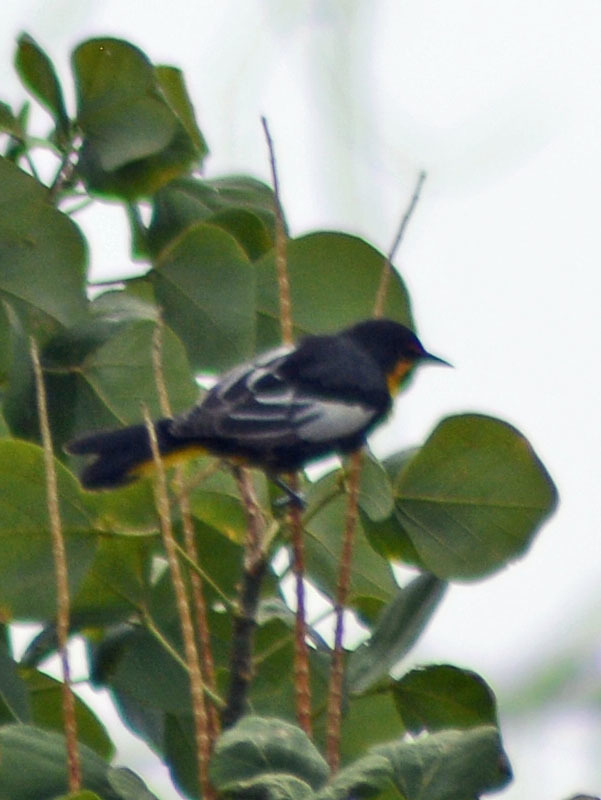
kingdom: Animalia
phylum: Chordata
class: Aves
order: Passeriformes
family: Icteridae
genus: Icterus
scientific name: Icterus abeillei
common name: Black-backed oriole
